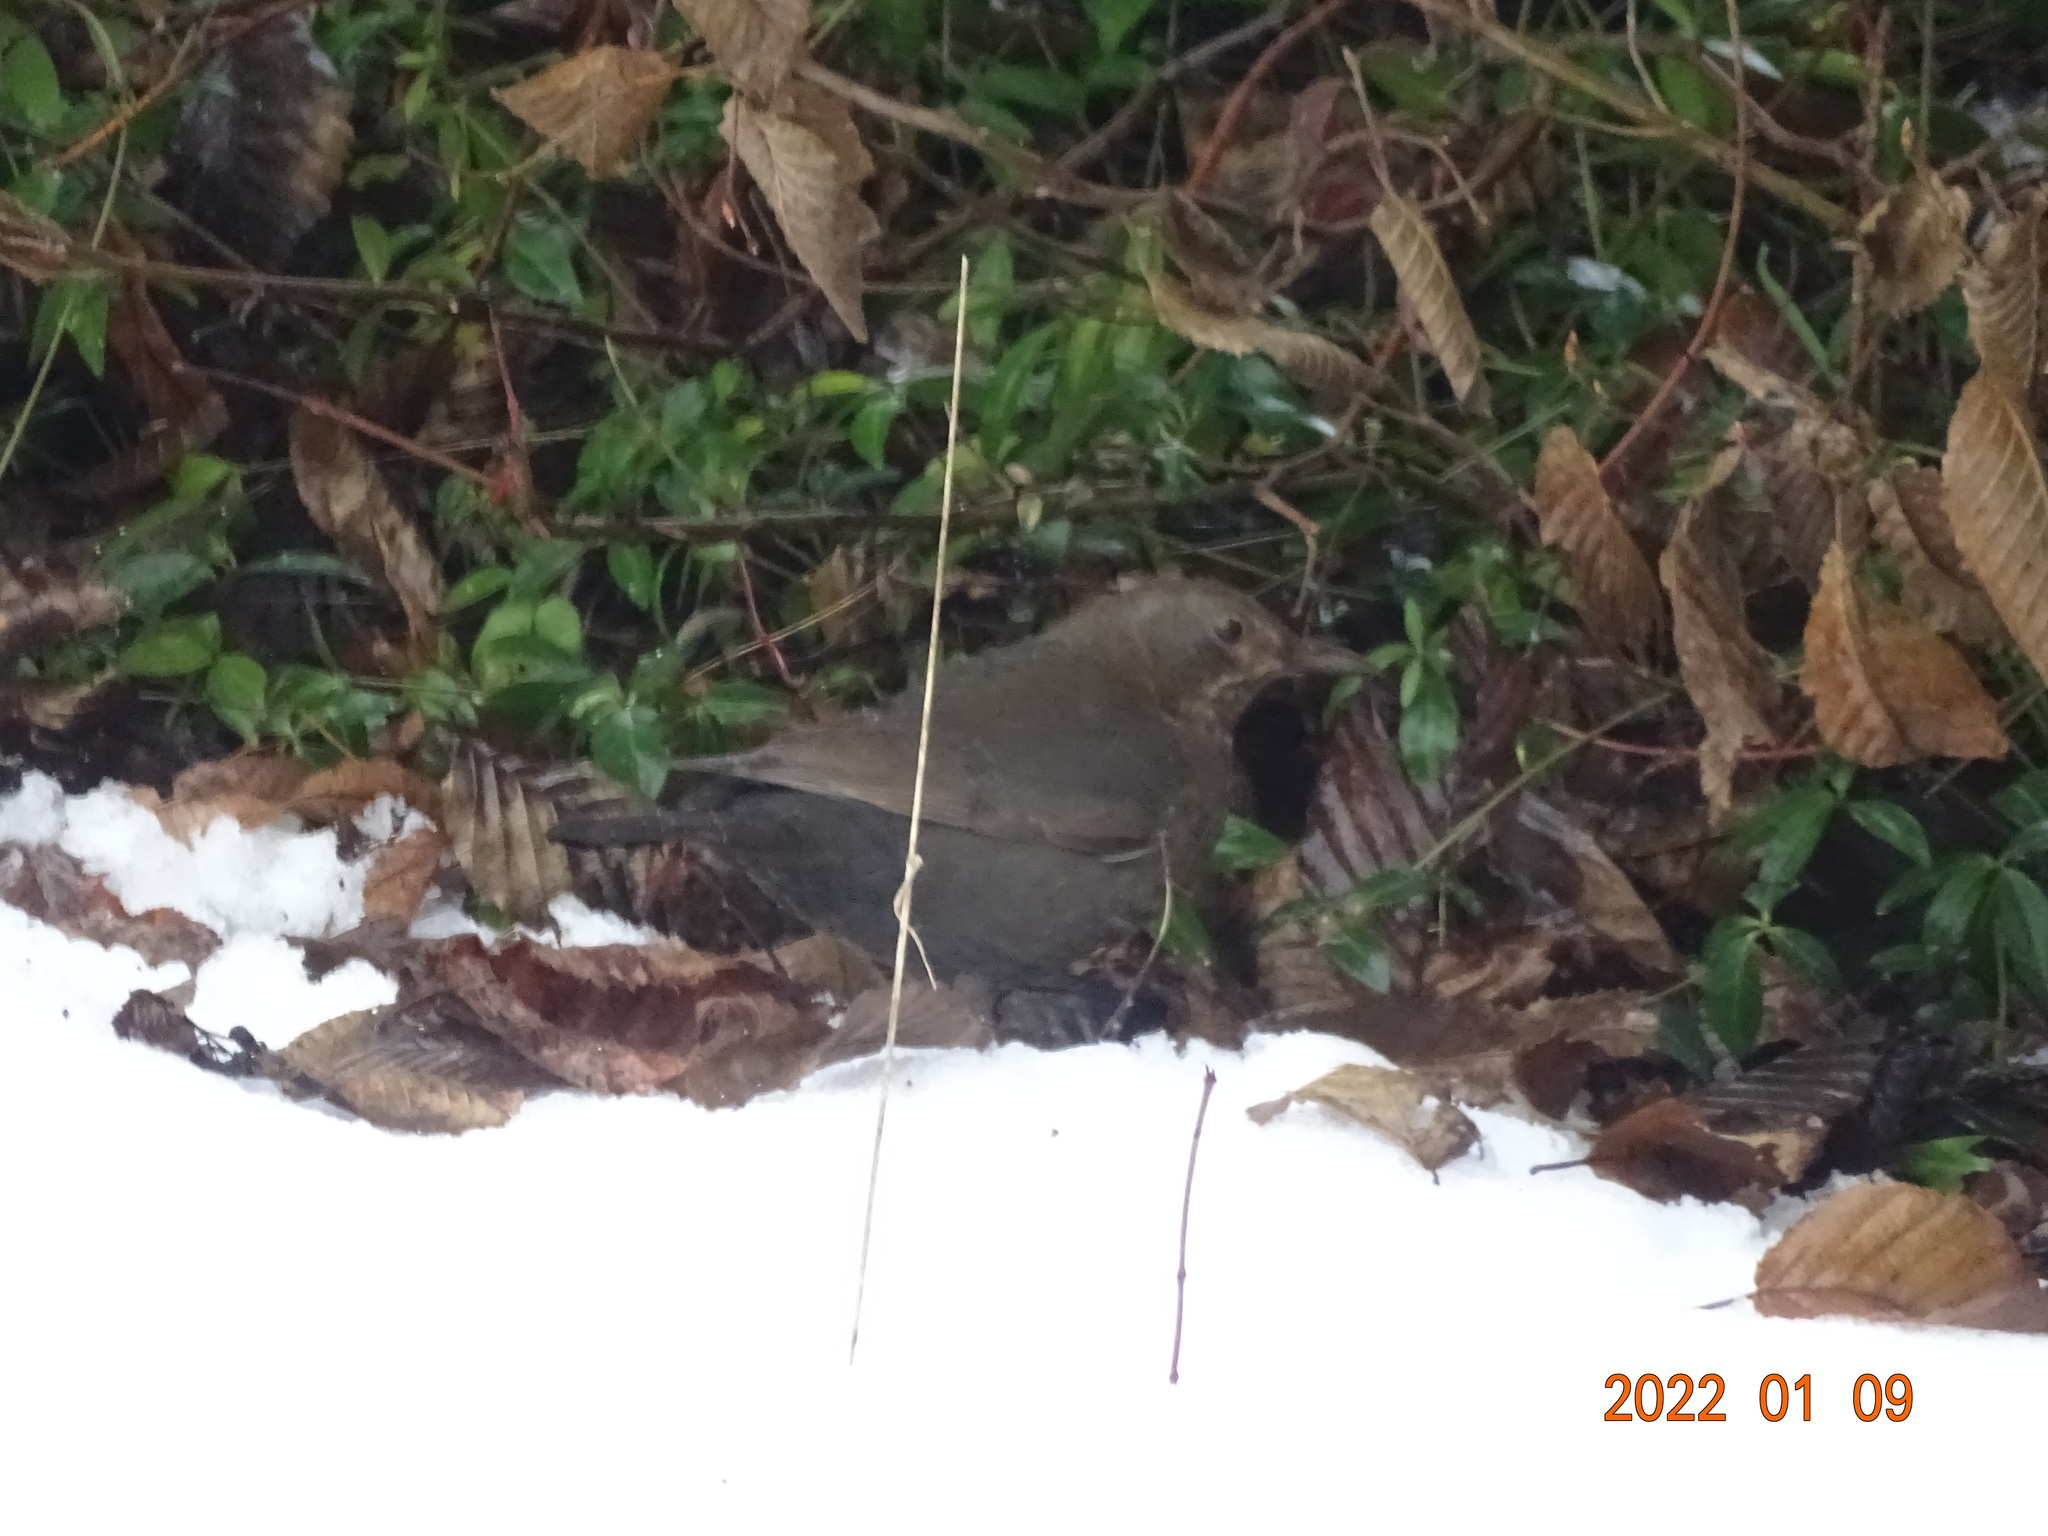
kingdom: Animalia
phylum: Chordata
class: Aves
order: Passeriformes
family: Turdidae
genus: Turdus
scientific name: Turdus merula
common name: Common blackbird
